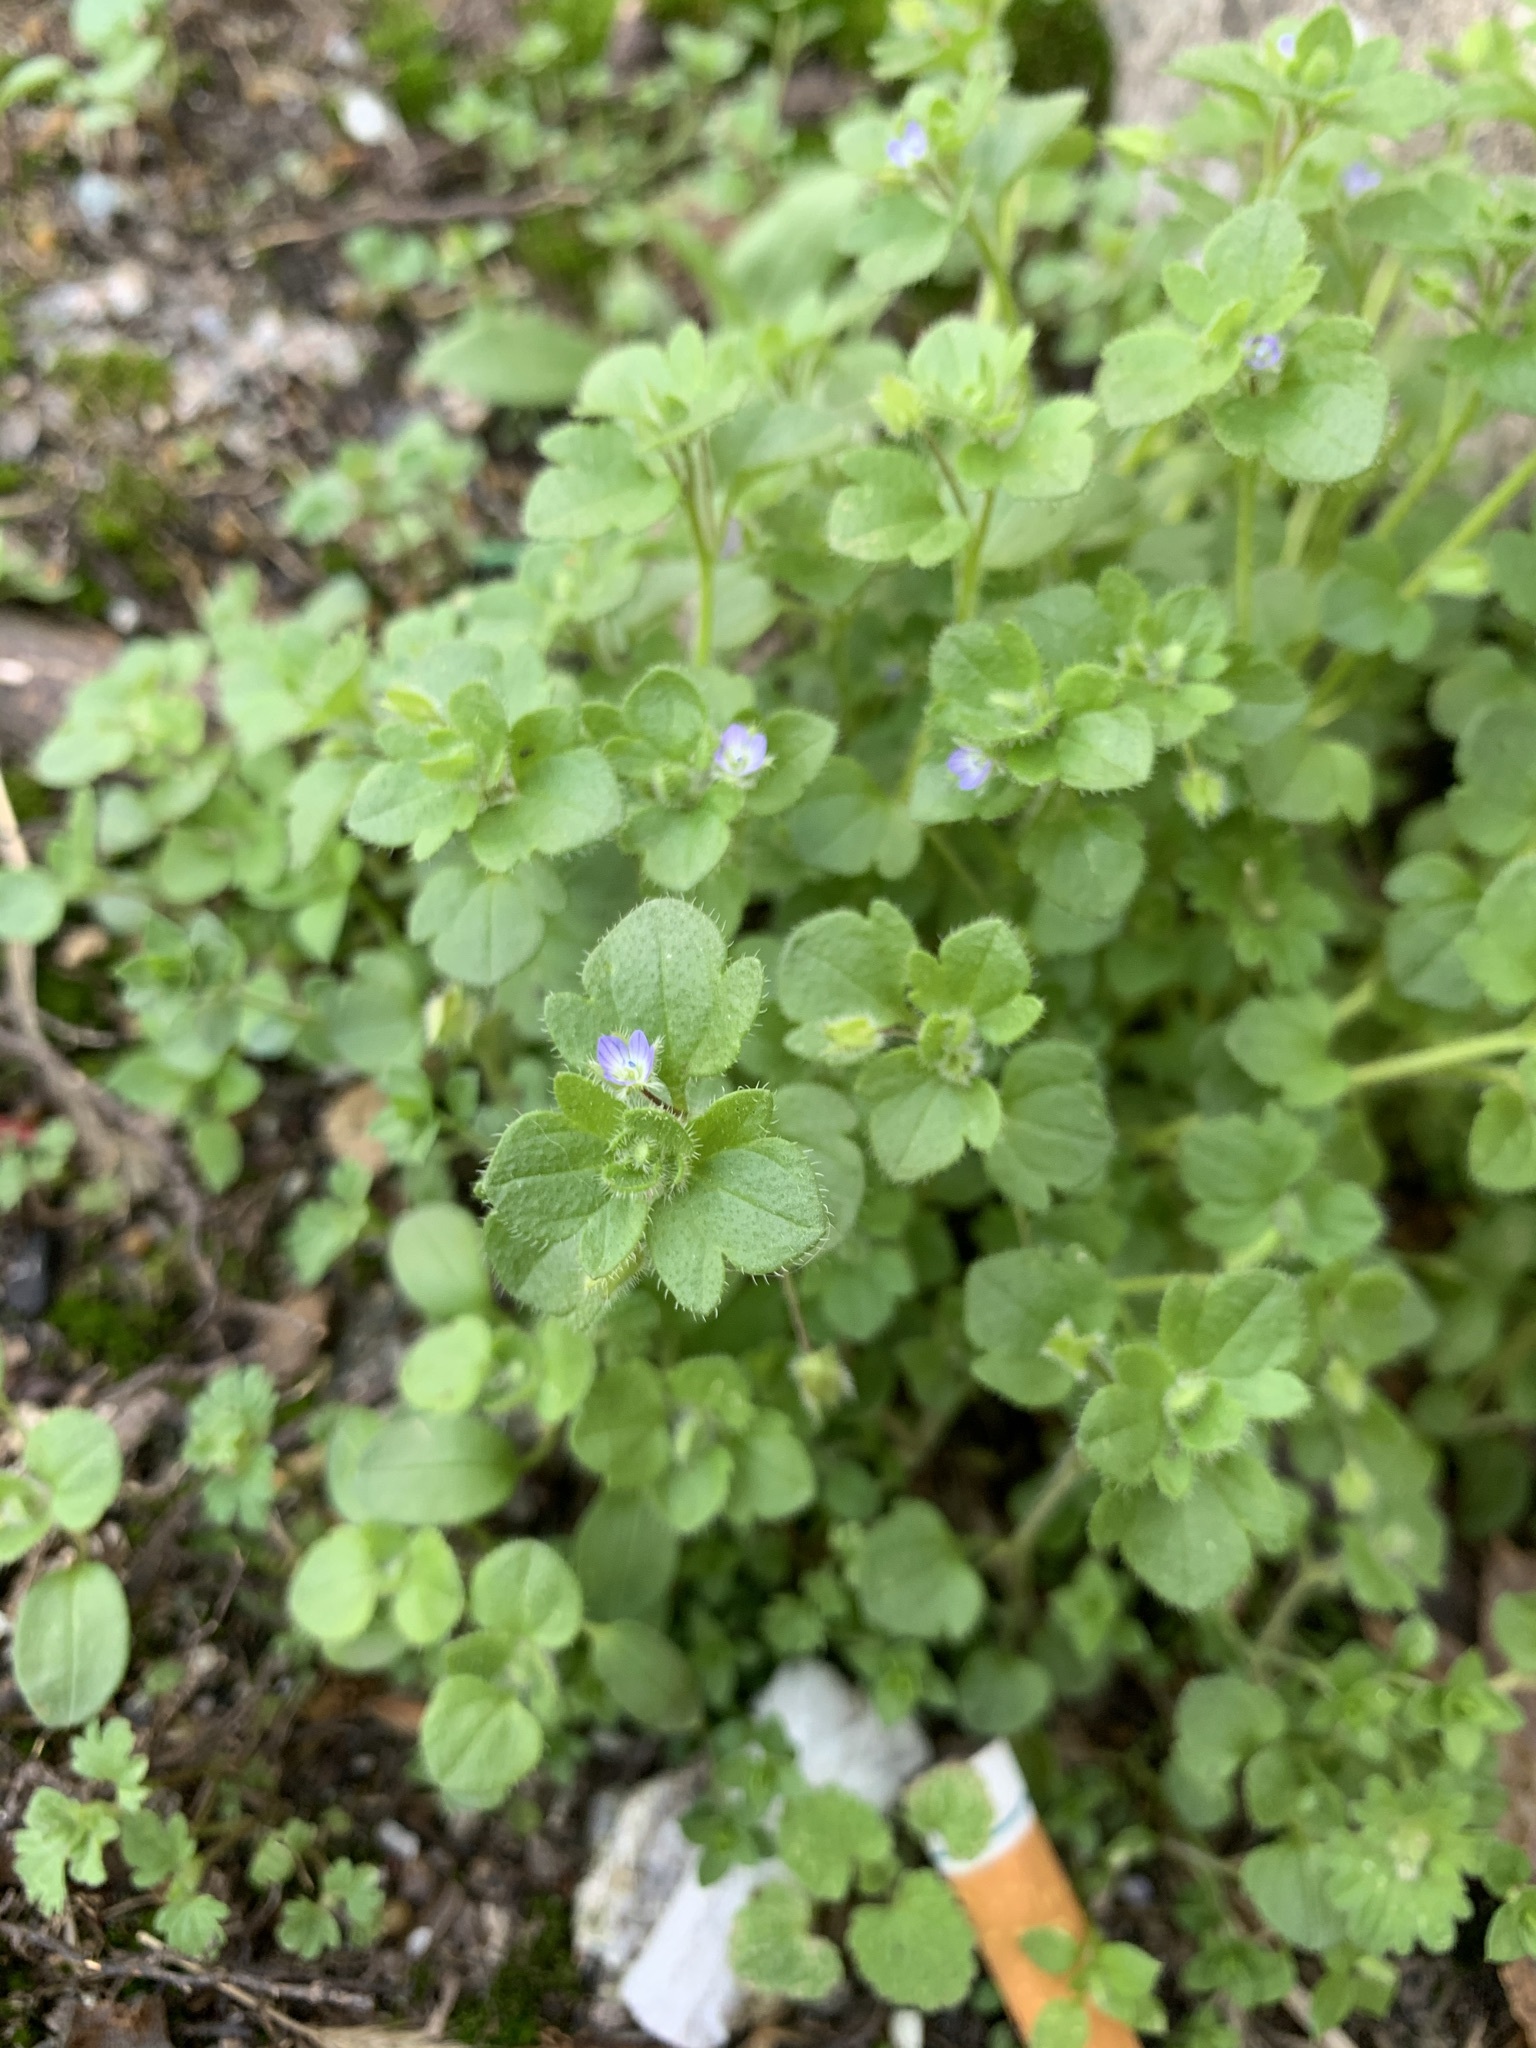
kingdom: Plantae
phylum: Tracheophyta
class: Magnoliopsida
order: Lamiales
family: Plantaginaceae
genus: Veronica
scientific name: Veronica hederifolia
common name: Ivy-leaved speedwell
